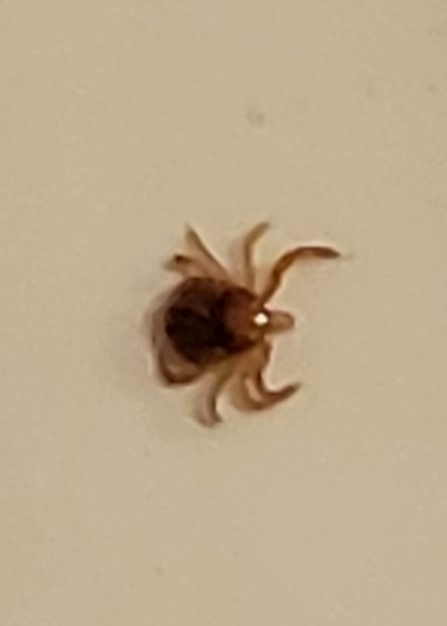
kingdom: Animalia
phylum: Arthropoda
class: Arachnida
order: Ixodida
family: Ixodidae
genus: Amblyomma
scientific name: Amblyomma americanum
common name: Lone star tick
